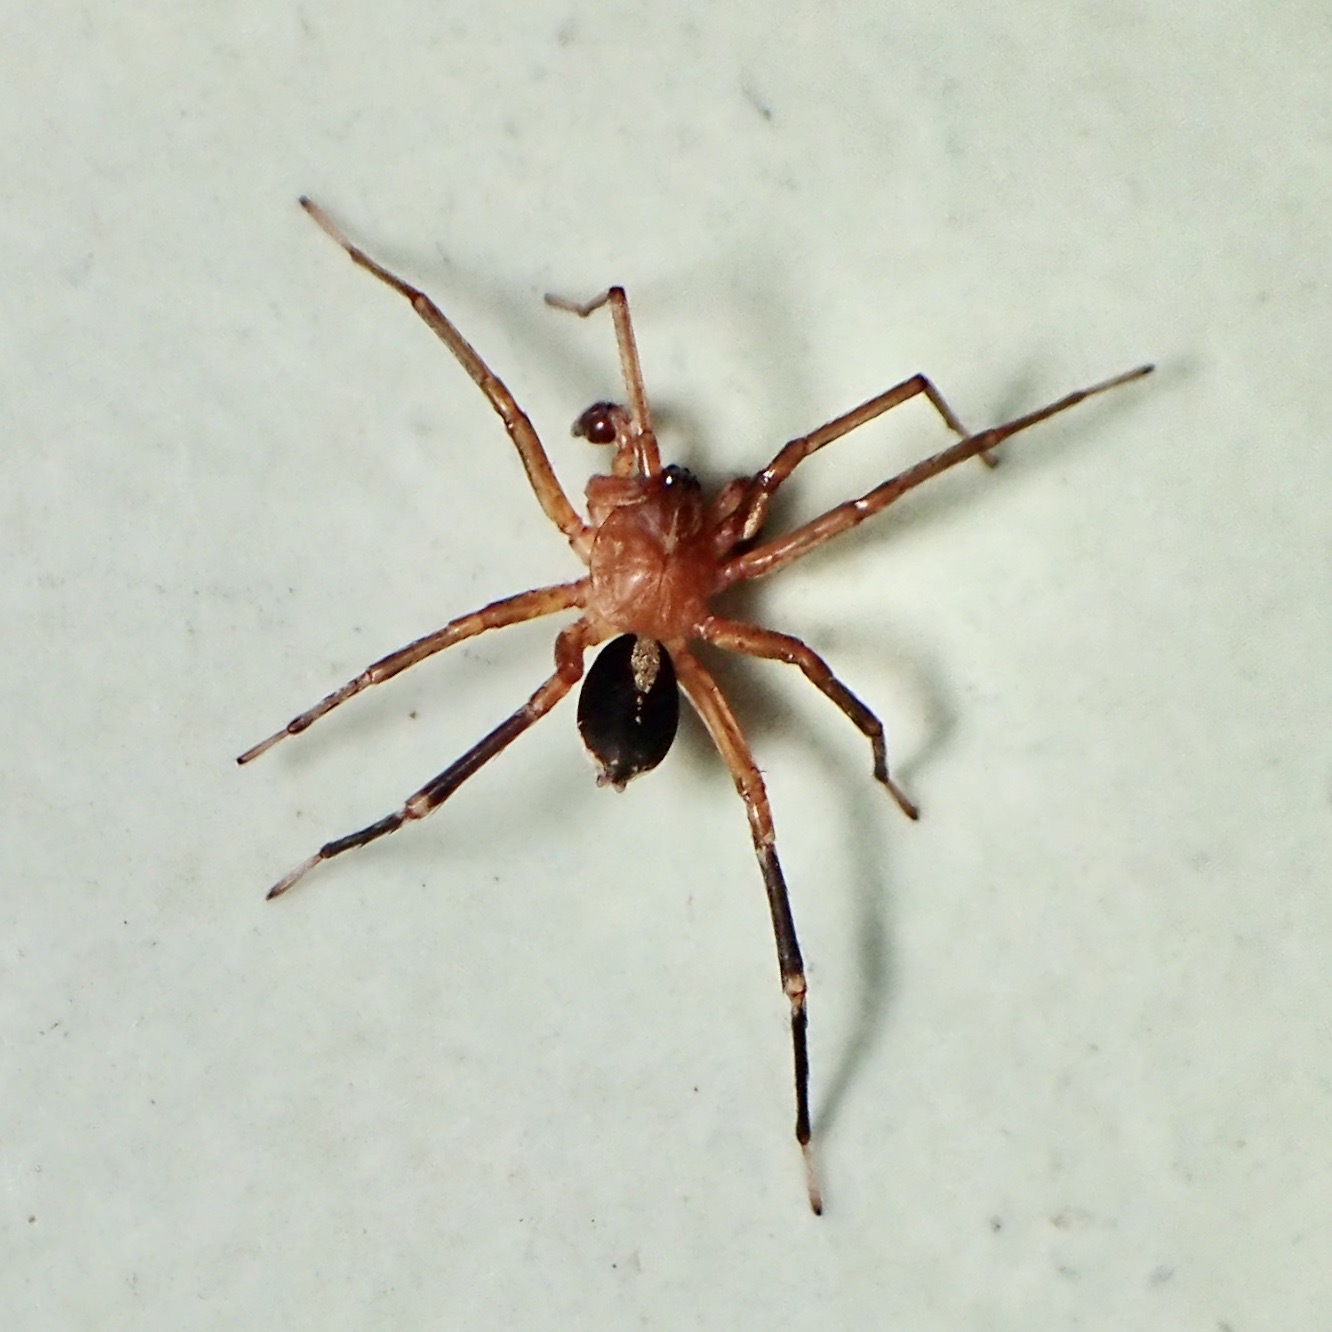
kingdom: Animalia
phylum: Arthropoda
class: Arachnida
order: Araneae
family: Corinnidae
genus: Copa
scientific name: Copa kabana
